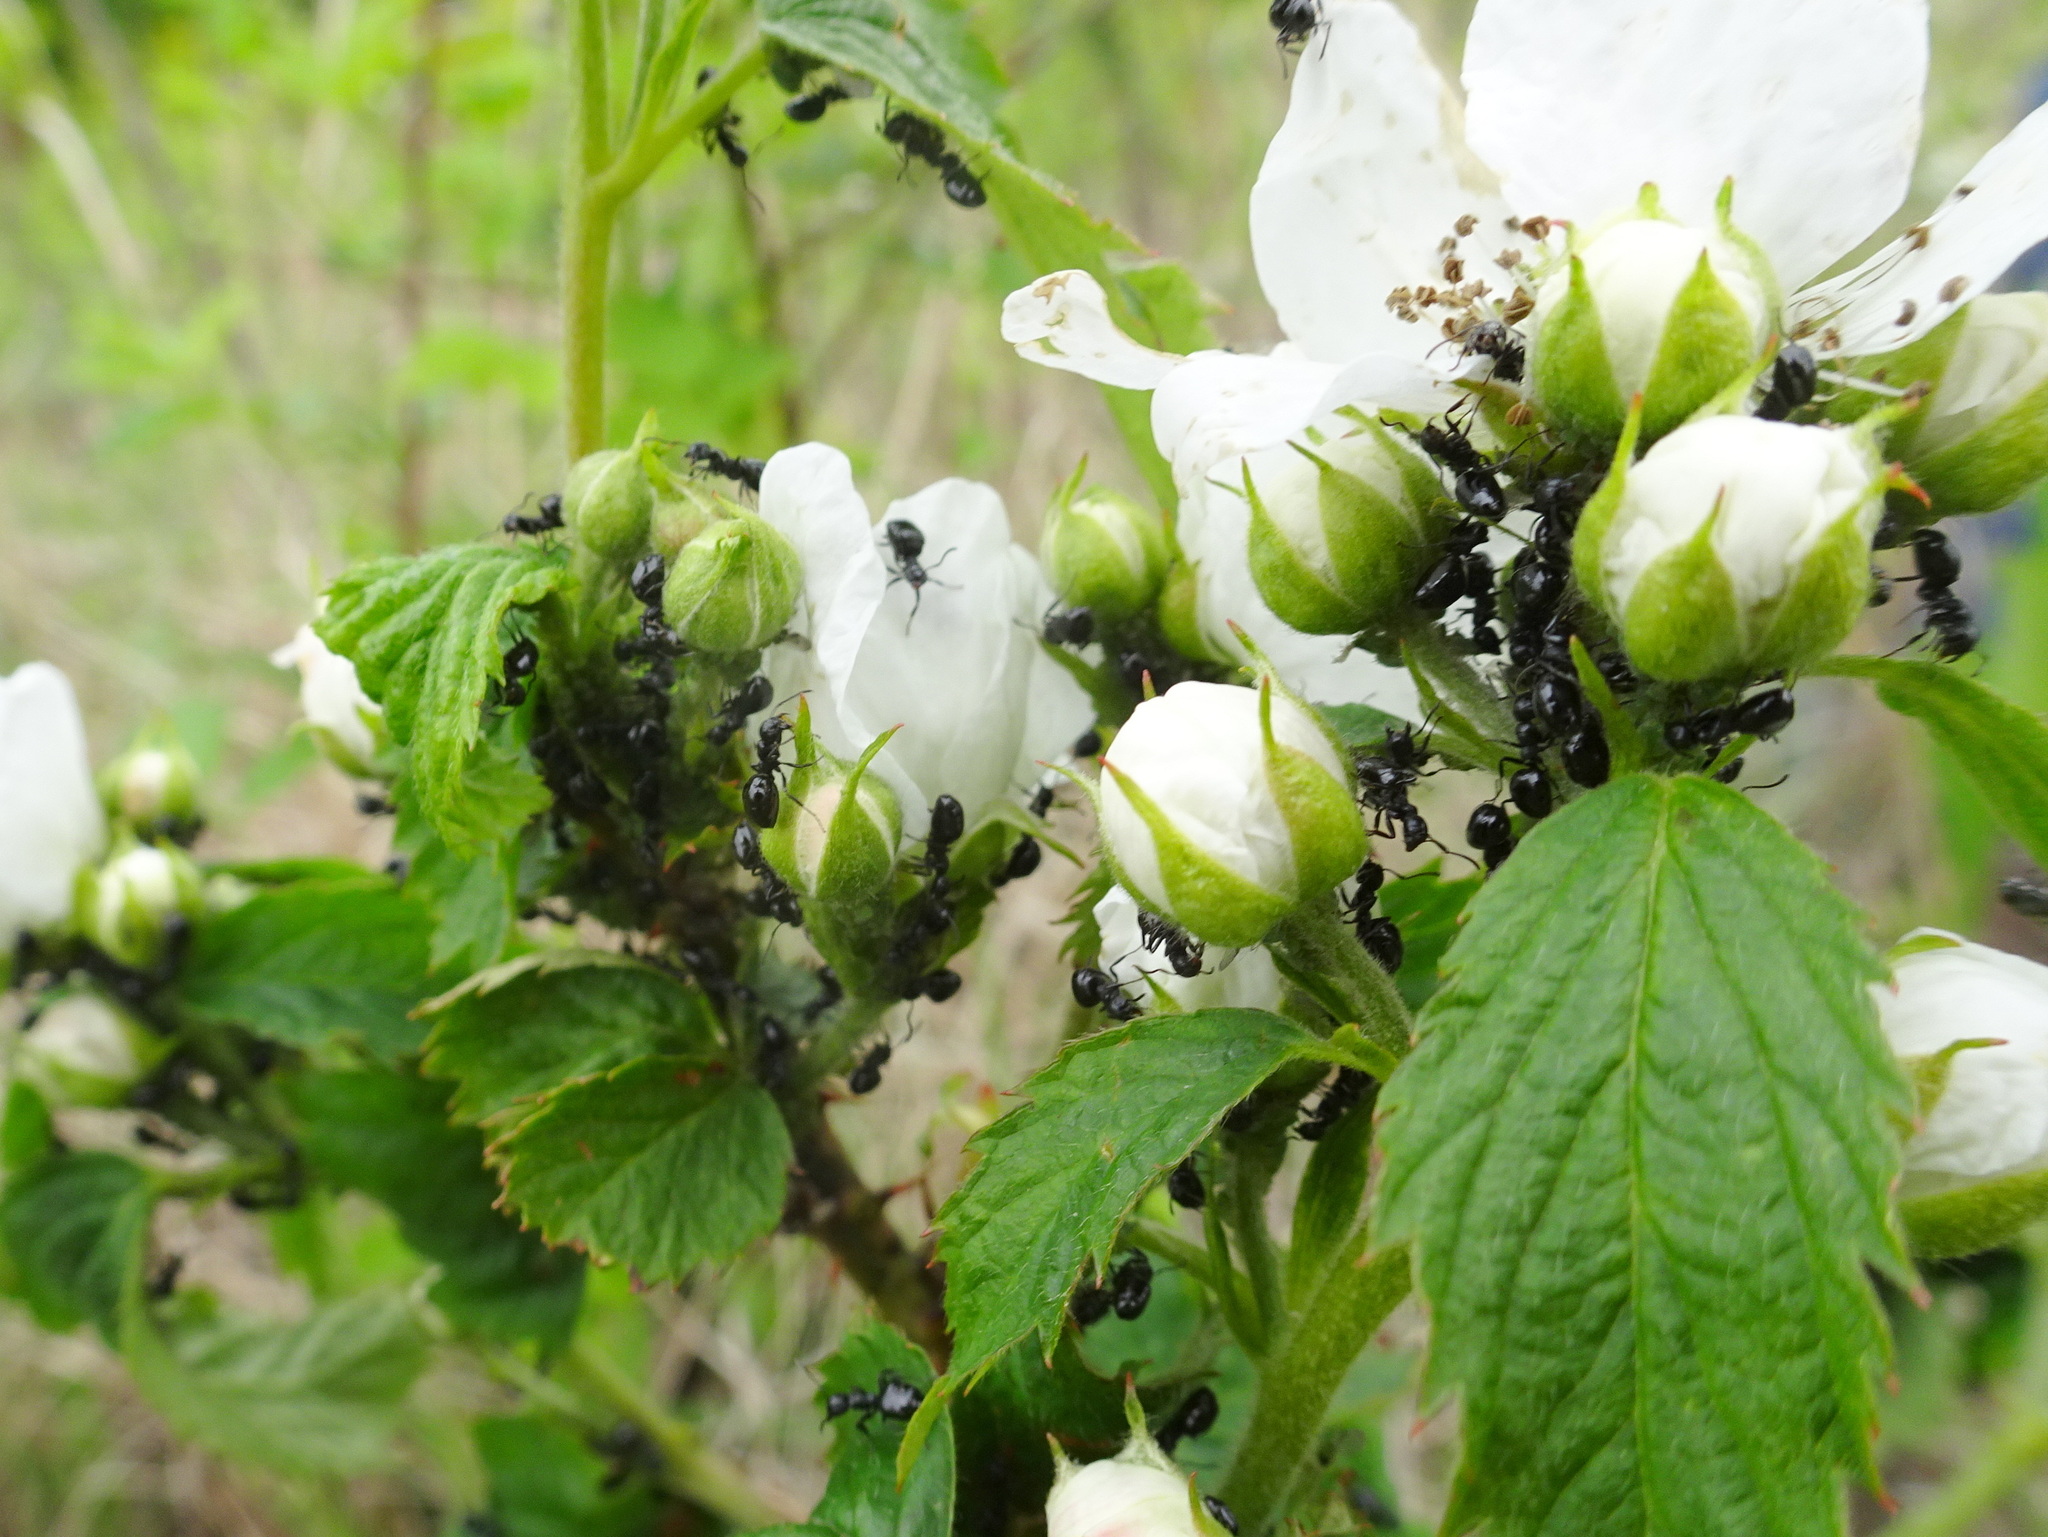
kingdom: Animalia
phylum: Arthropoda
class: Insecta
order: Hymenoptera
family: Formicidae
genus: Dolichoderus
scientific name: Dolichoderus taschenbergi
